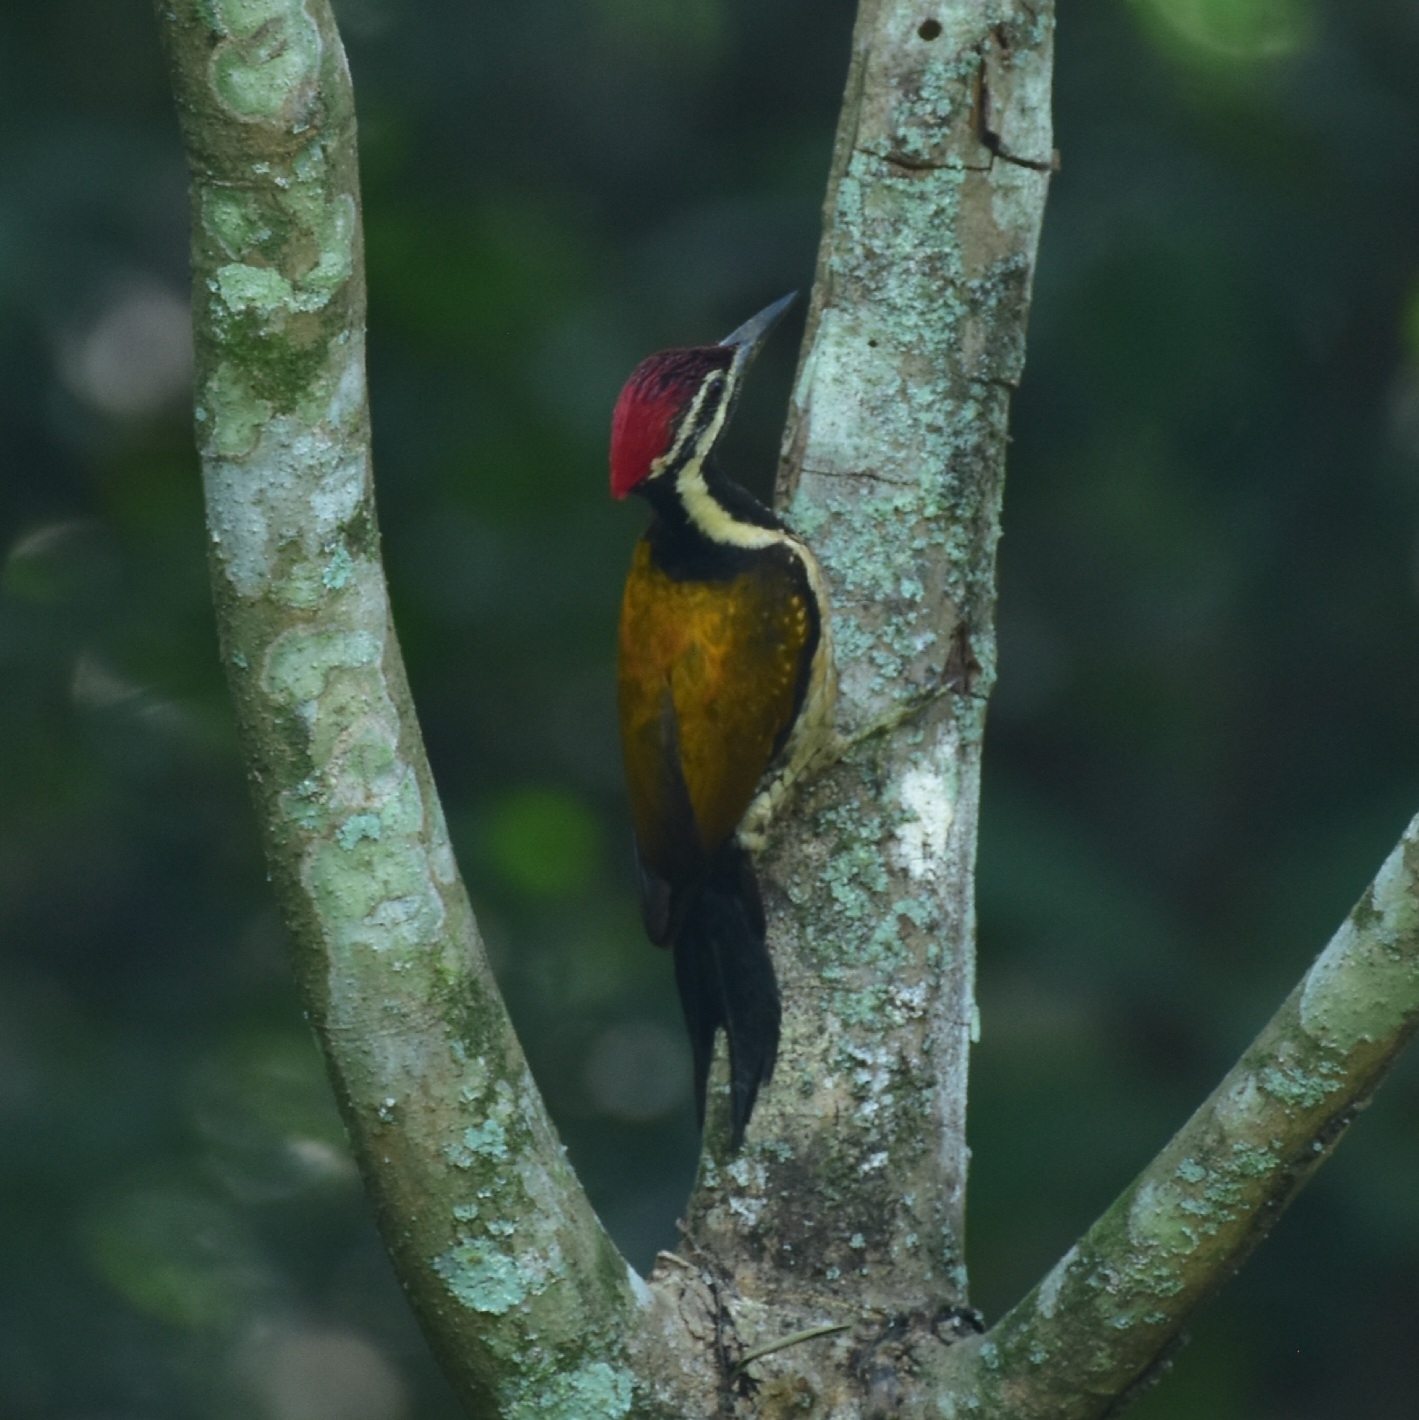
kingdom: Animalia
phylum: Chordata
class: Aves
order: Piciformes
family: Picidae
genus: Dinopium
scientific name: Dinopium benghalense
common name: Black-rumped flameback
